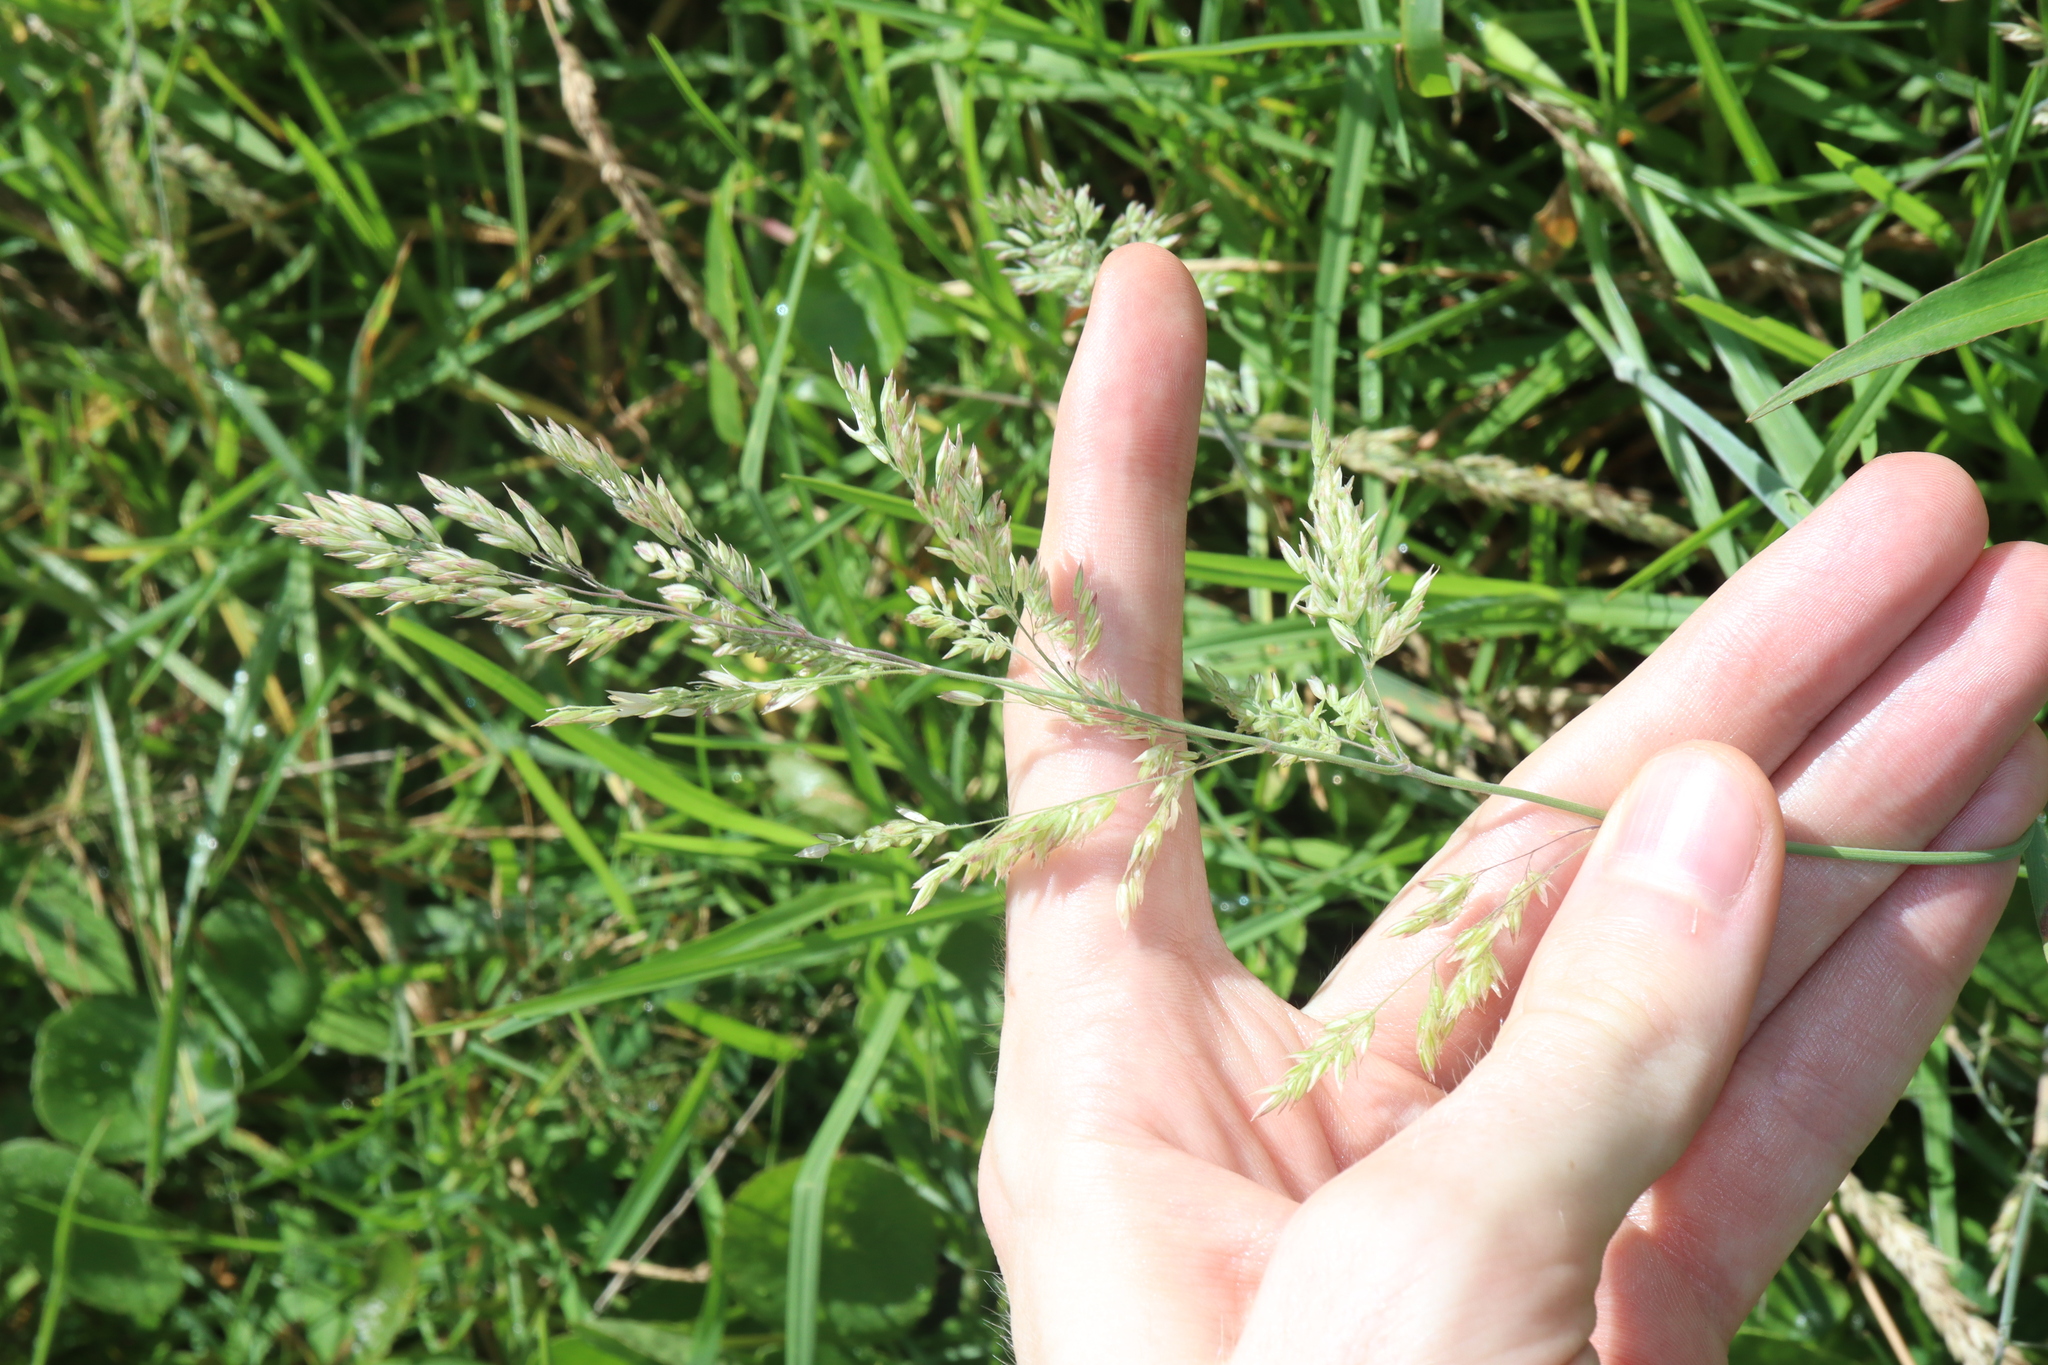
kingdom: Plantae
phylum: Tracheophyta
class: Liliopsida
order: Poales
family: Poaceae
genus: Holcus
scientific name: Holcus lanatus
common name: Yorkshire-fog
